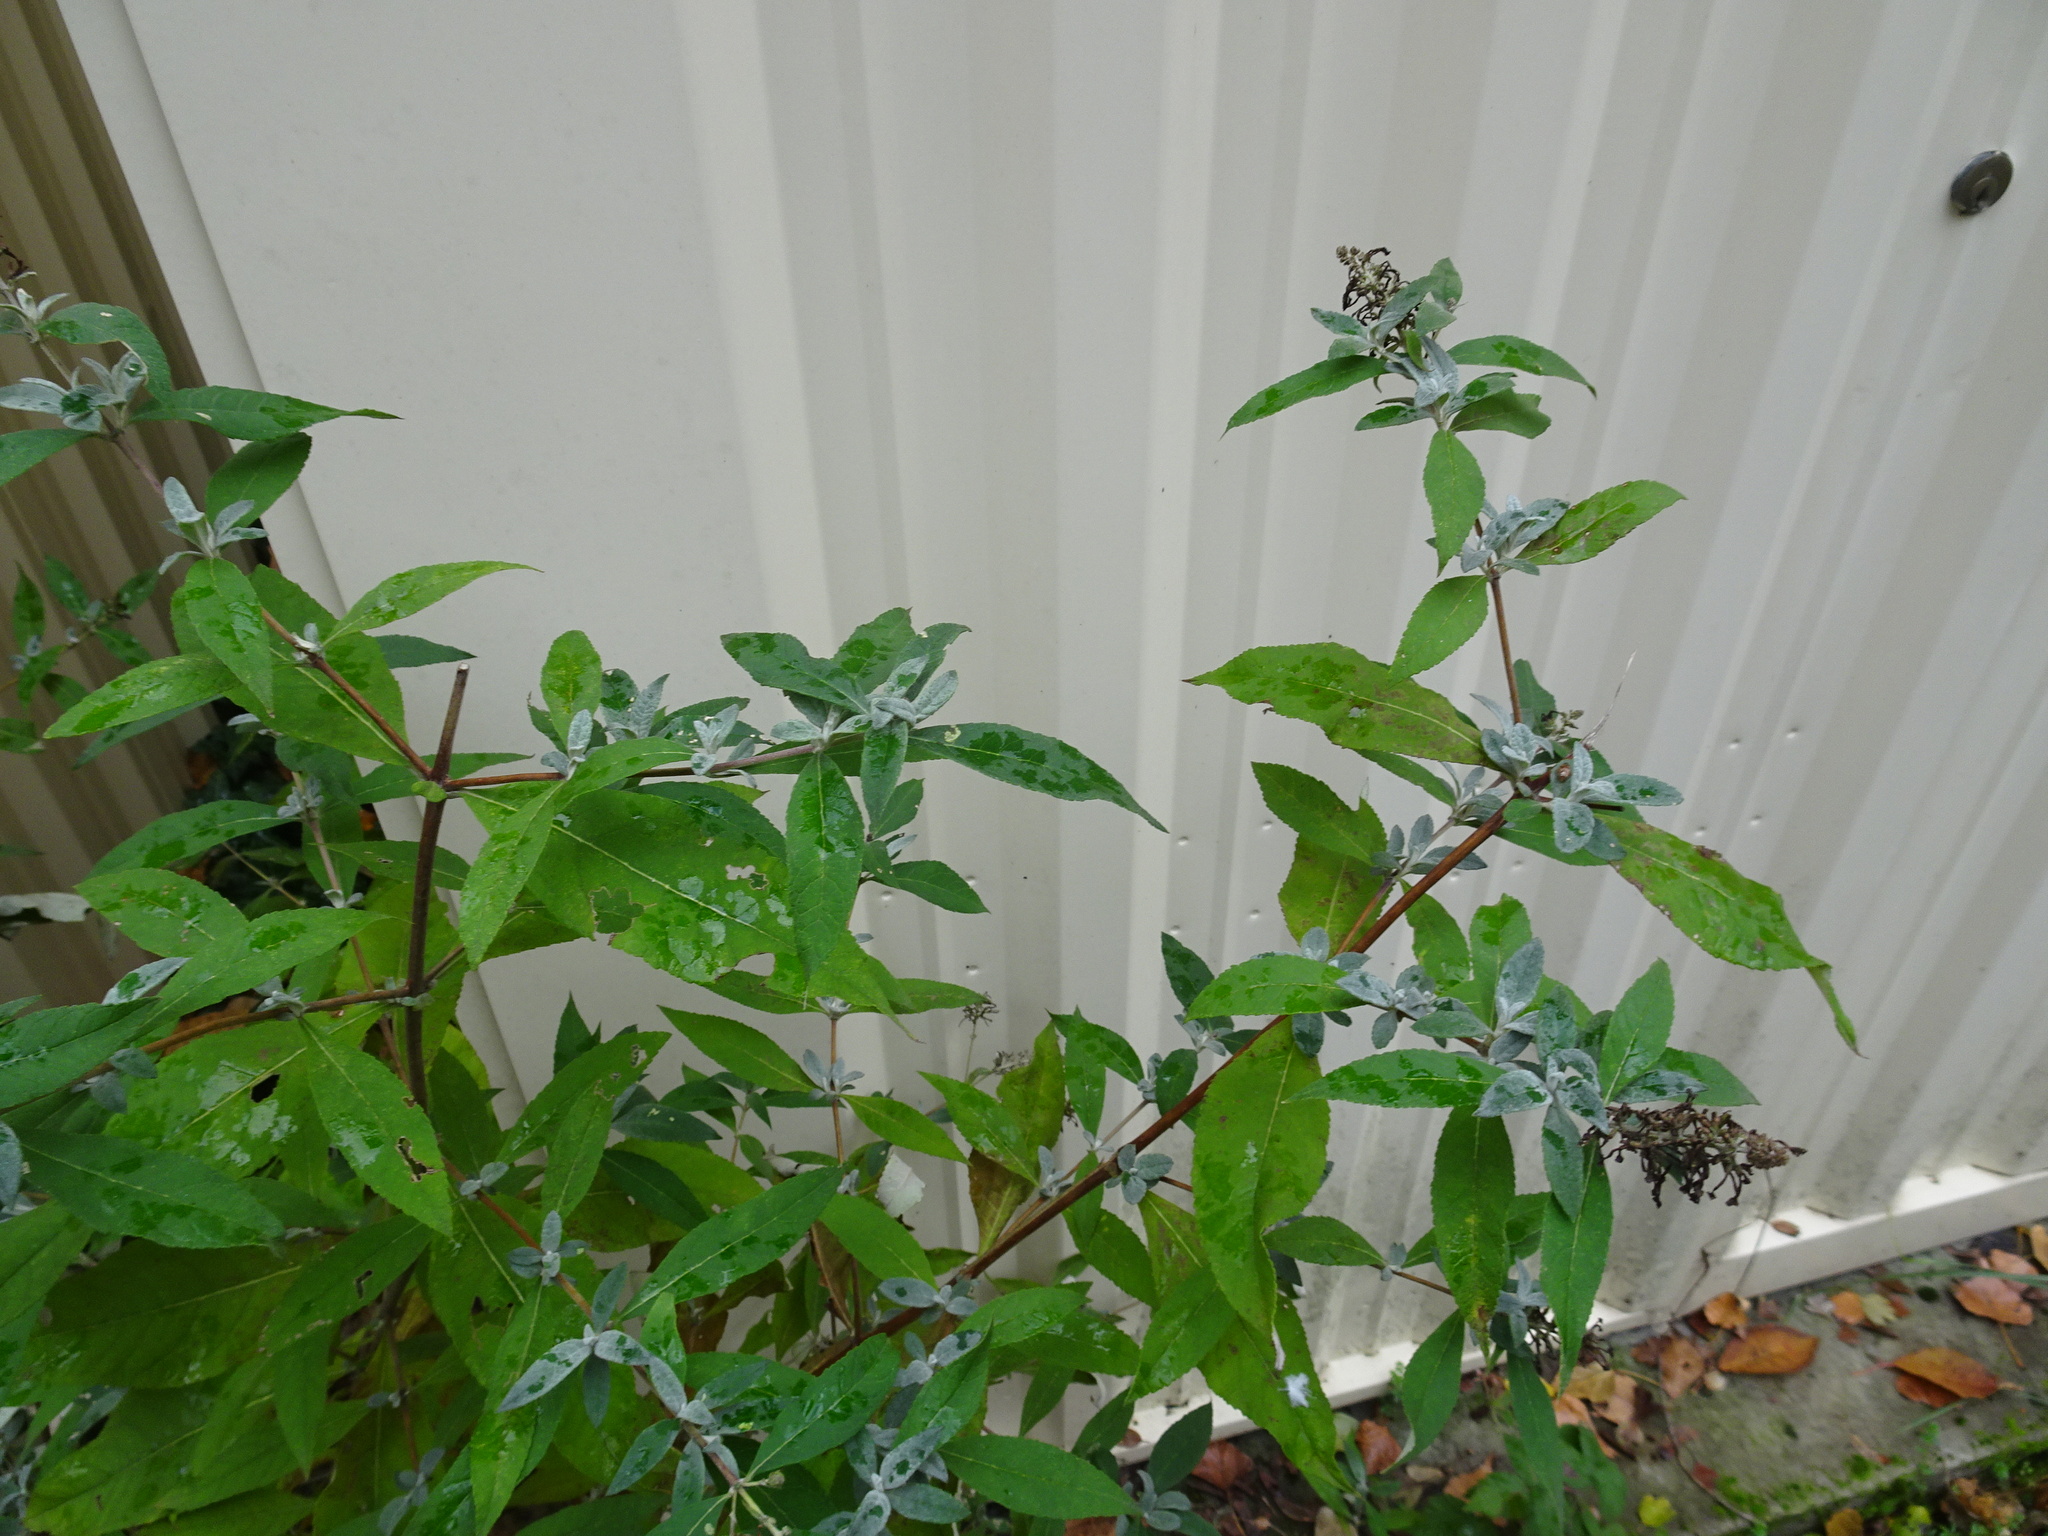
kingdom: Plantae
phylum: Tracheophyta
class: Magnoliopsida
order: Lamiales
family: Scrophulariaceae
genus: Buddleja
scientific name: Buddleja davidii
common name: Butterfly-bush
